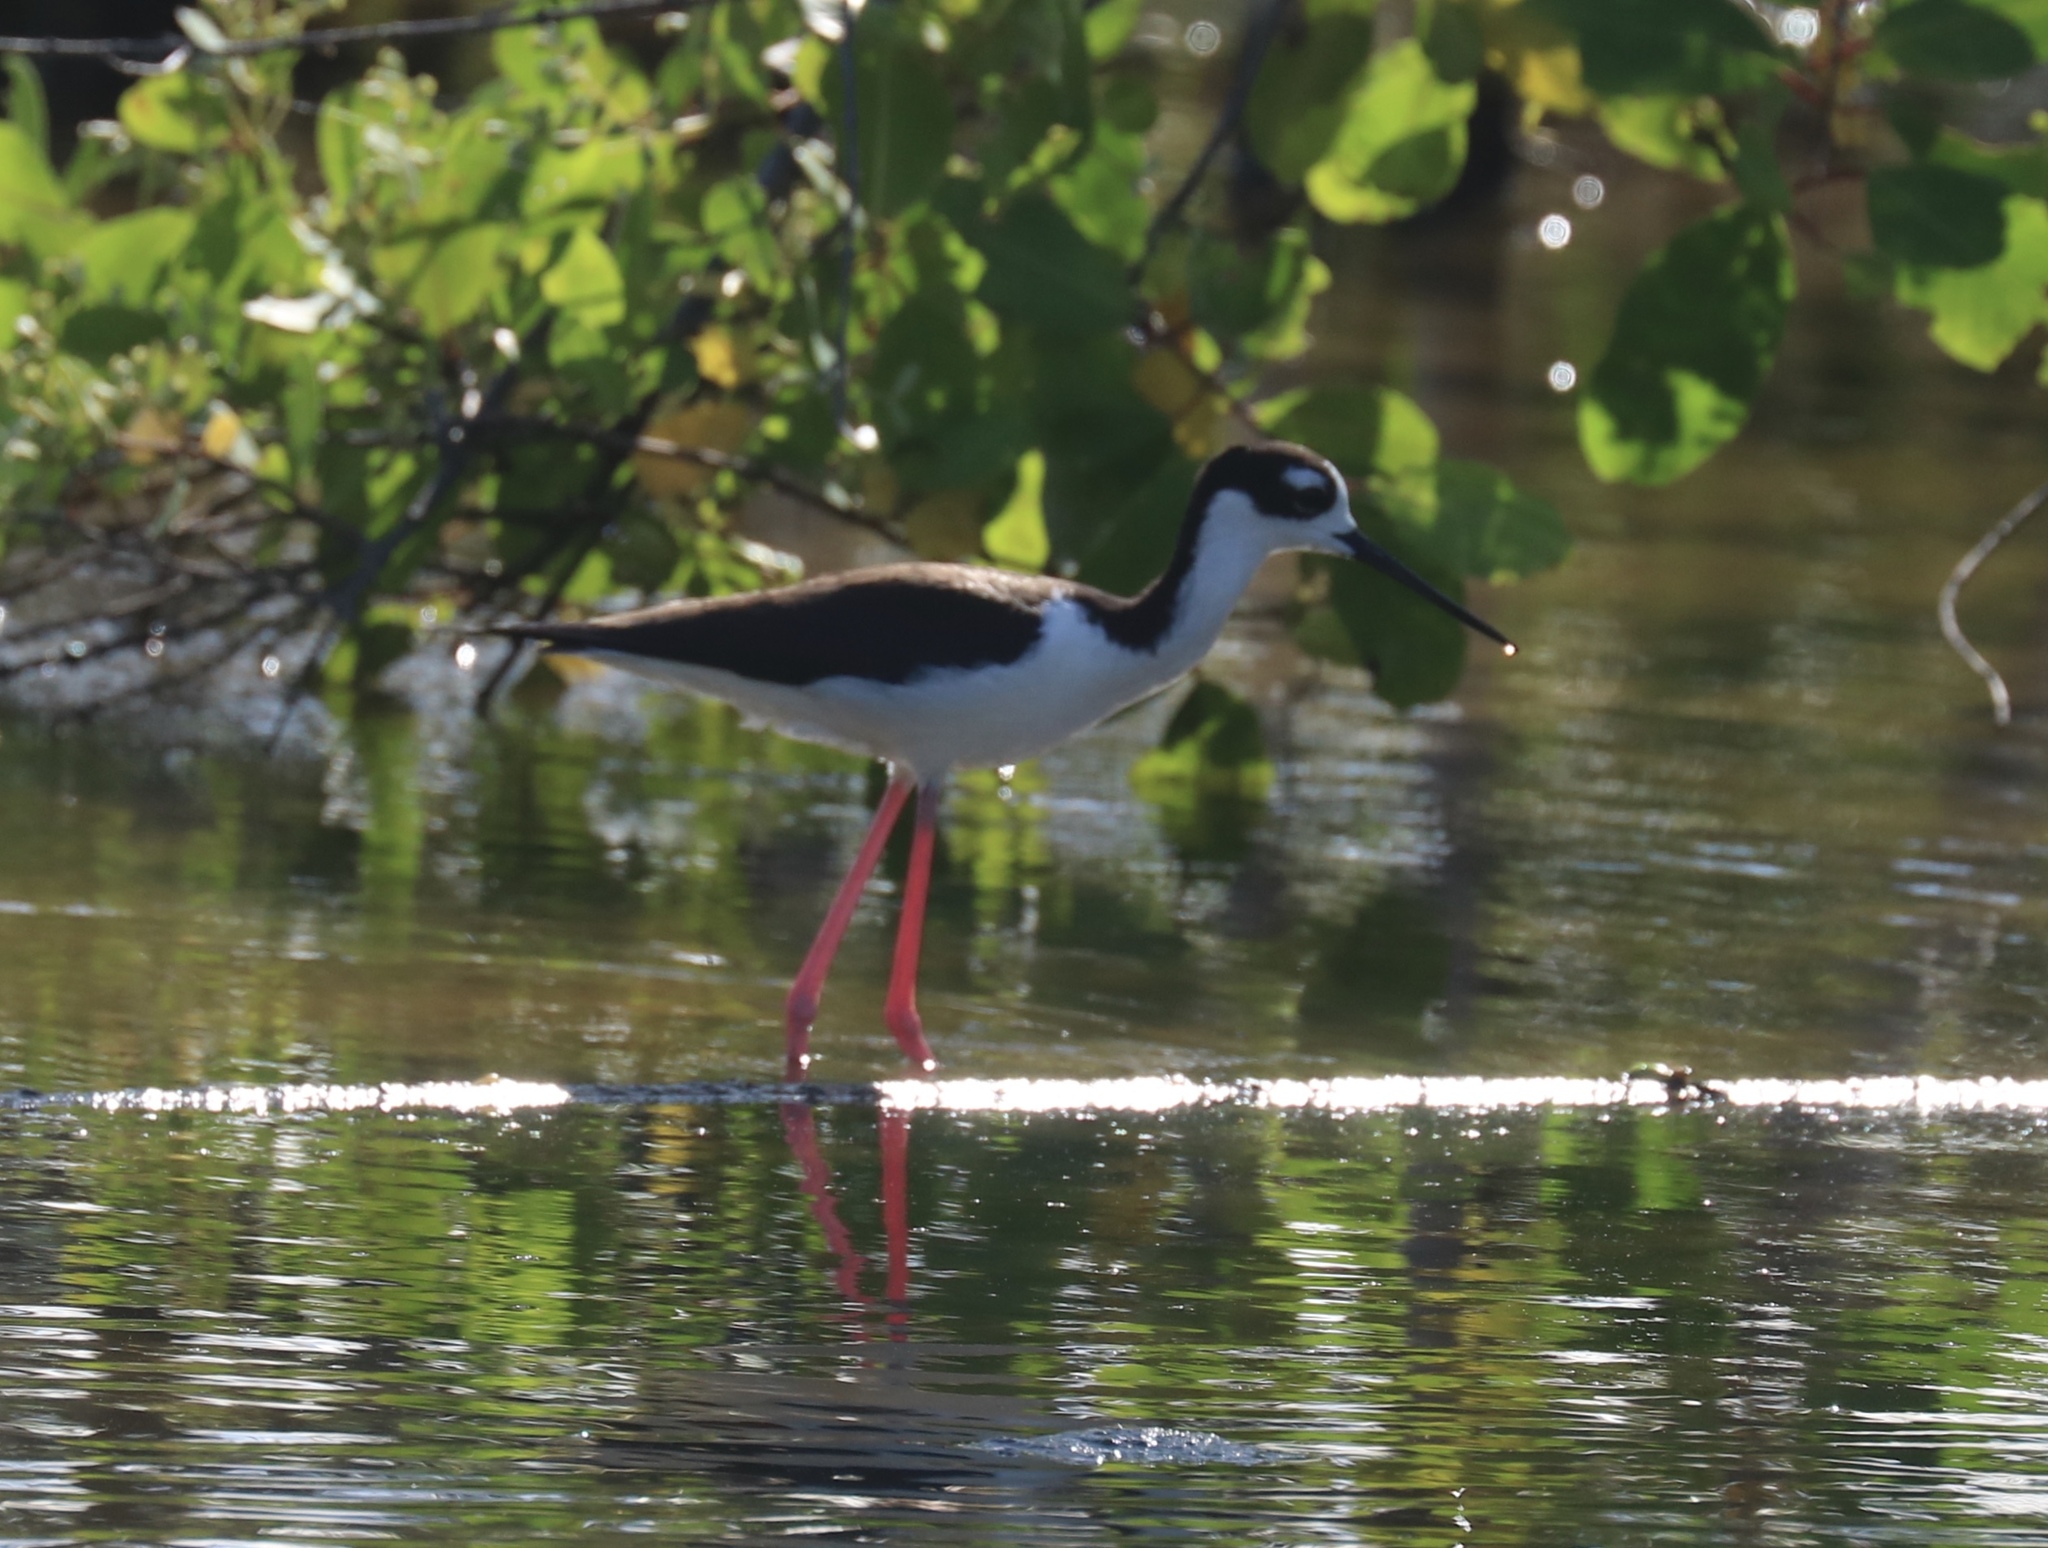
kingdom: Animalia
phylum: Chordata
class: Aves
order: Charadriiformes
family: Recurvirostridae
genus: Himantopus
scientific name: Himantopus mexicanus
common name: Black-necked stilt
